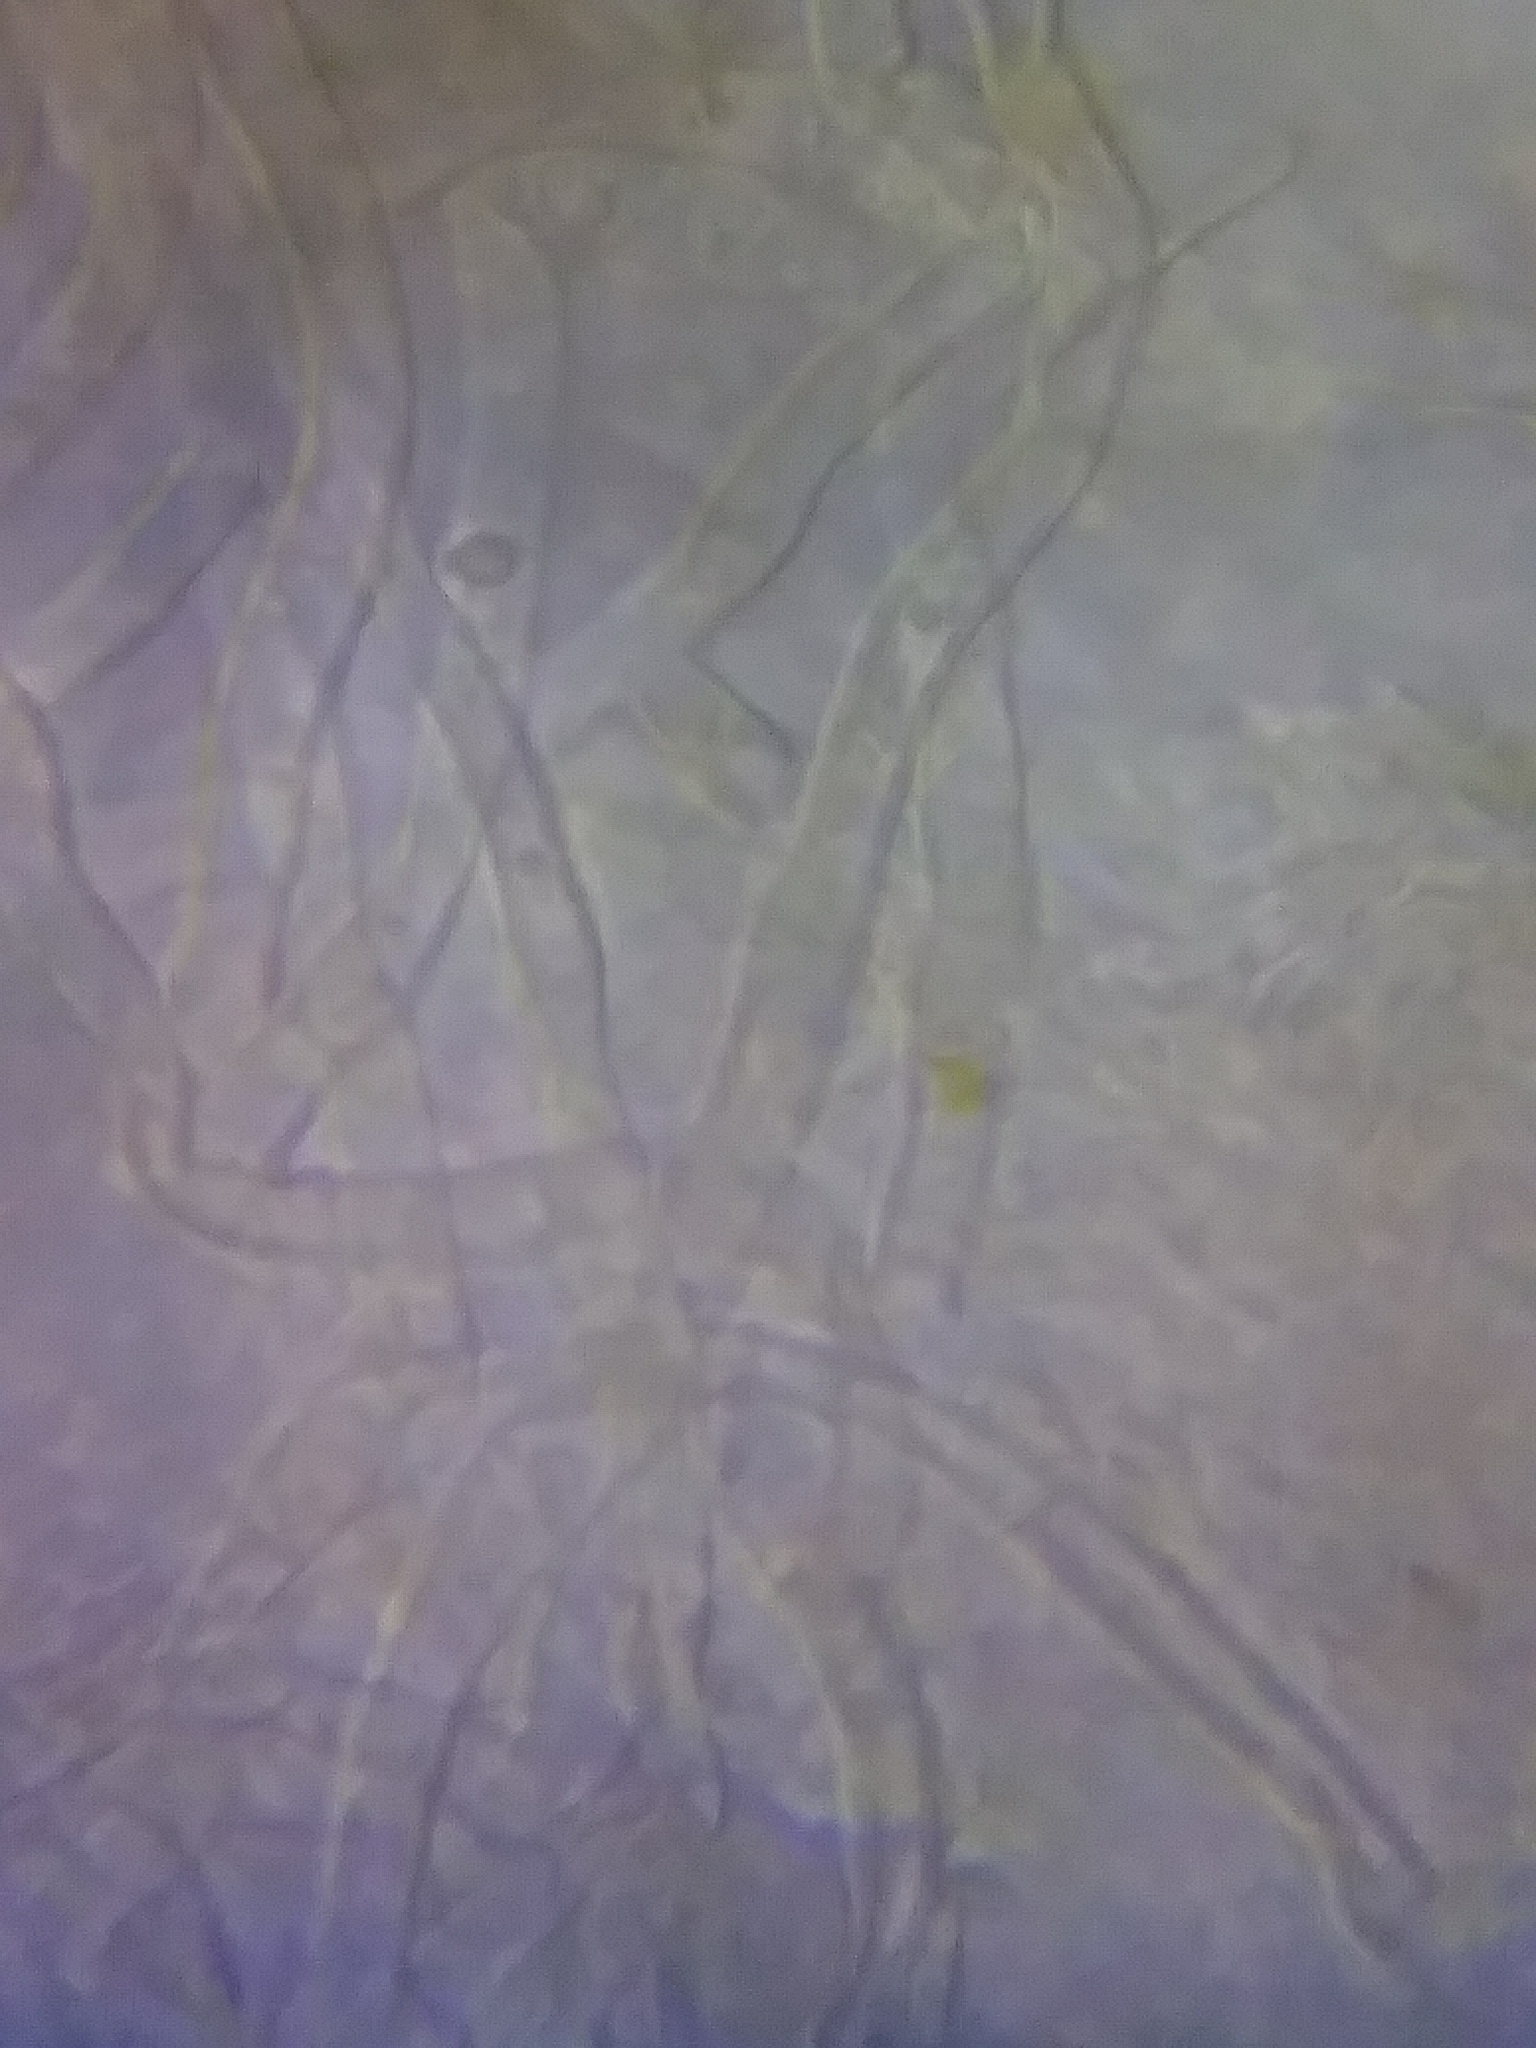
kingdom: Fungi
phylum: Basidiomycota
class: Agaricomycetes
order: Hymenochaetales
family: Oxyporaceae
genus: Oxyporus
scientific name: Oxyporus populinus
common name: Poplar bracket
